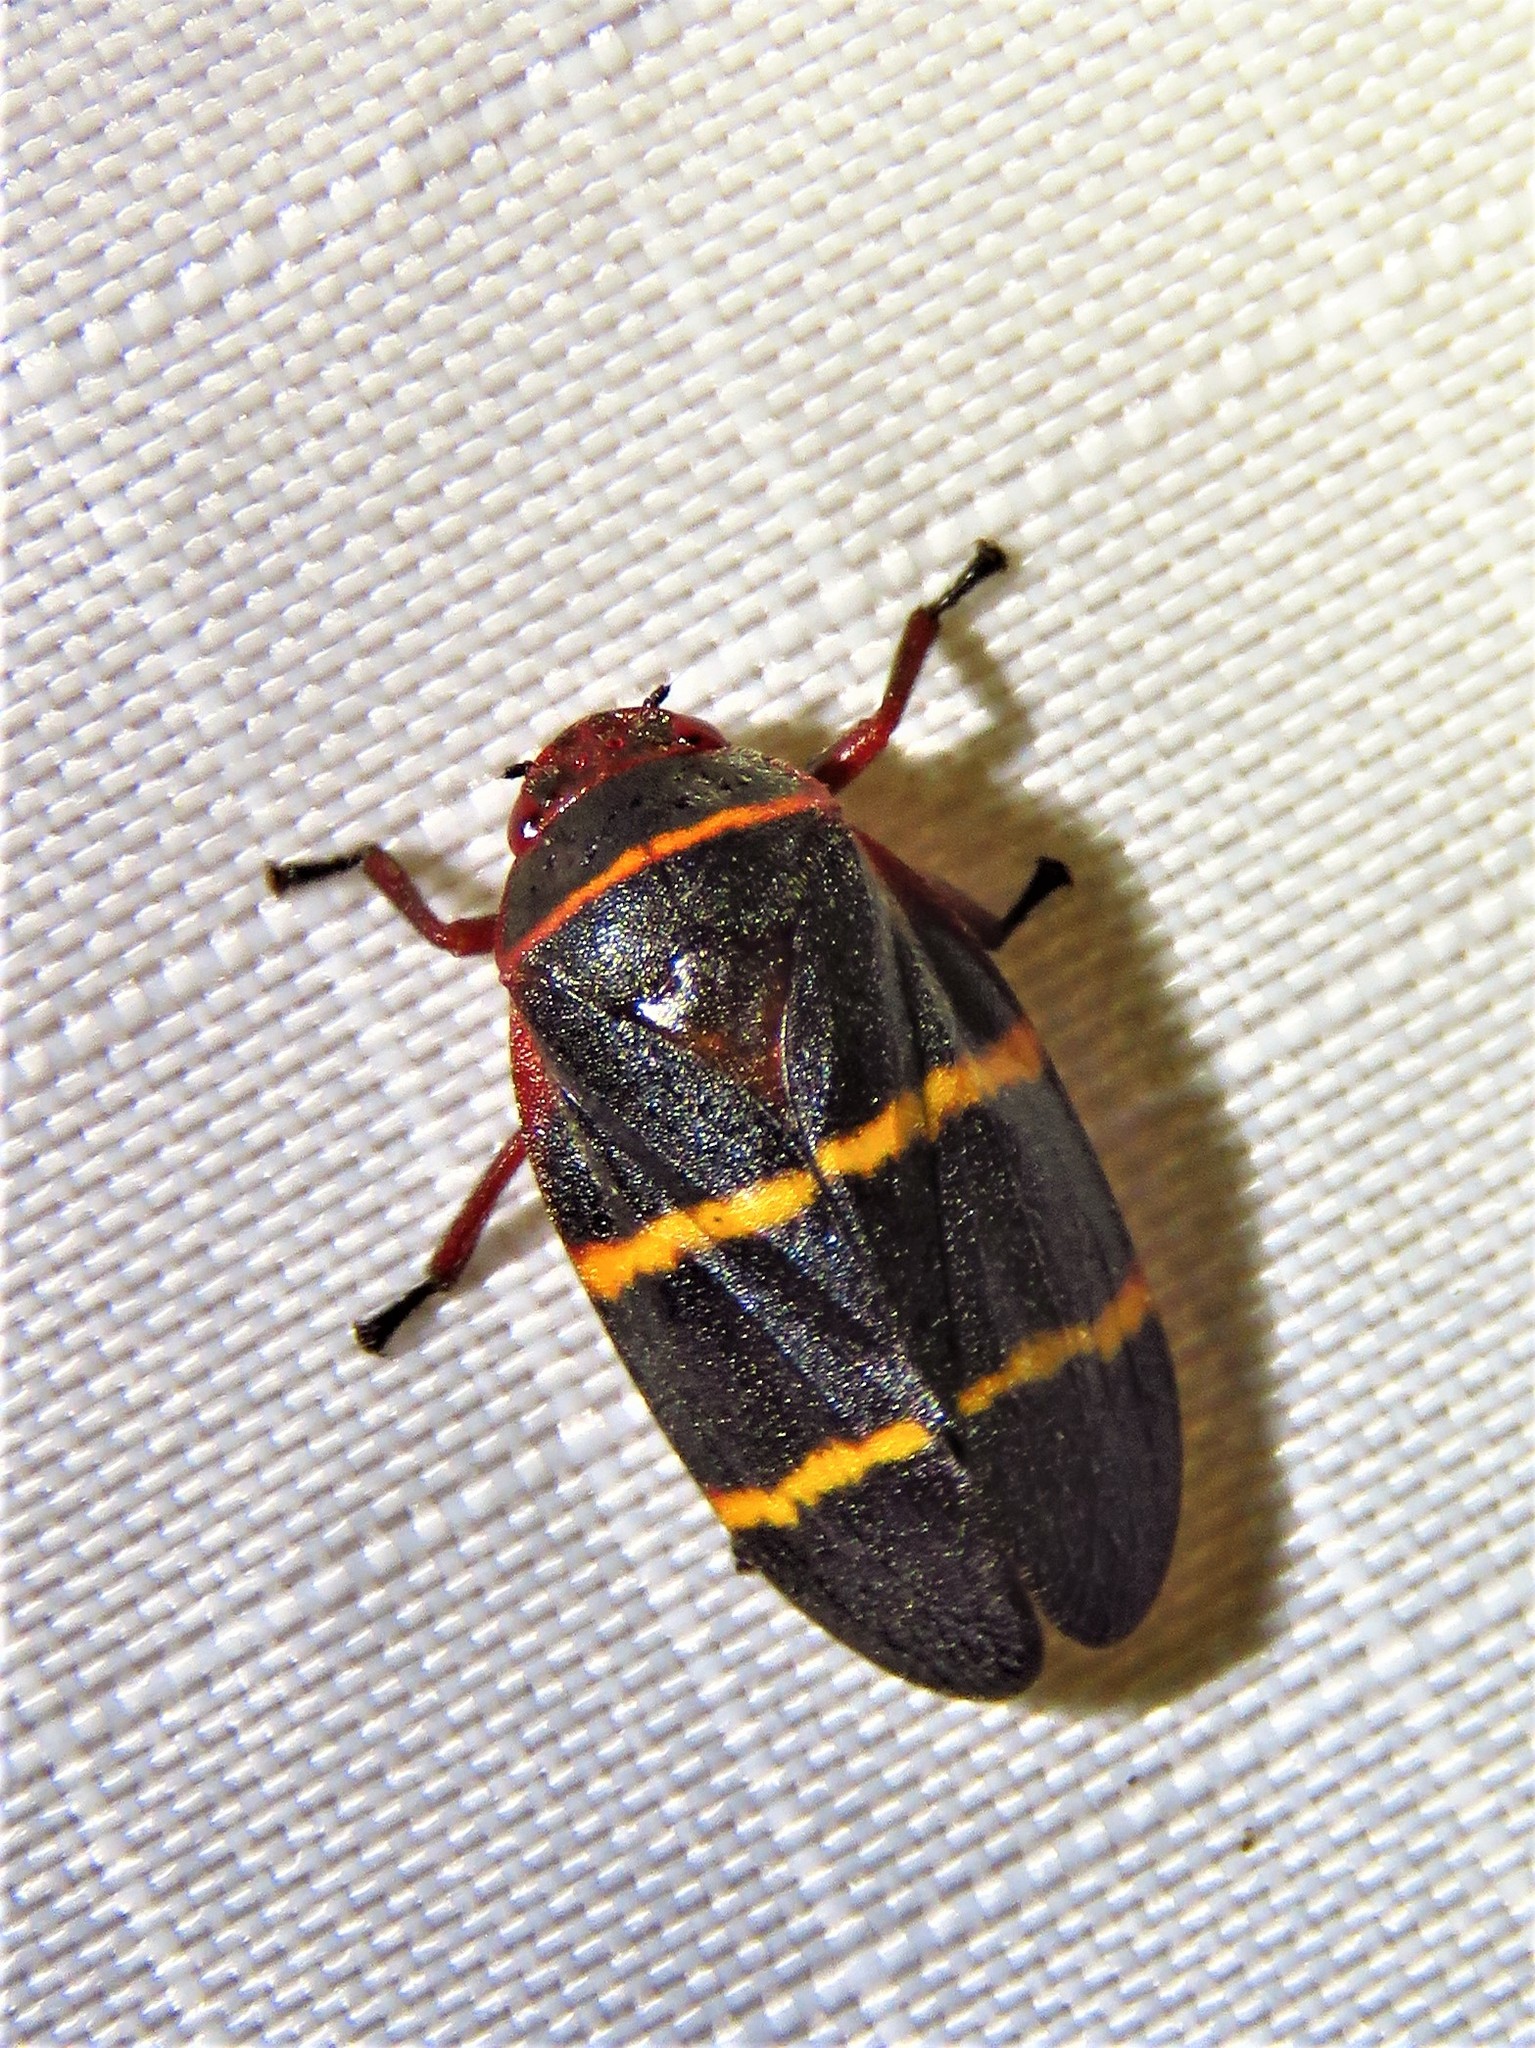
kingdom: Animalia
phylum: Arthropoda
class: Insecta
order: Hemiptera
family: Cercopidae
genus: Prosapia
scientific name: Prosapia bicincta
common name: Twolined spittlebug
